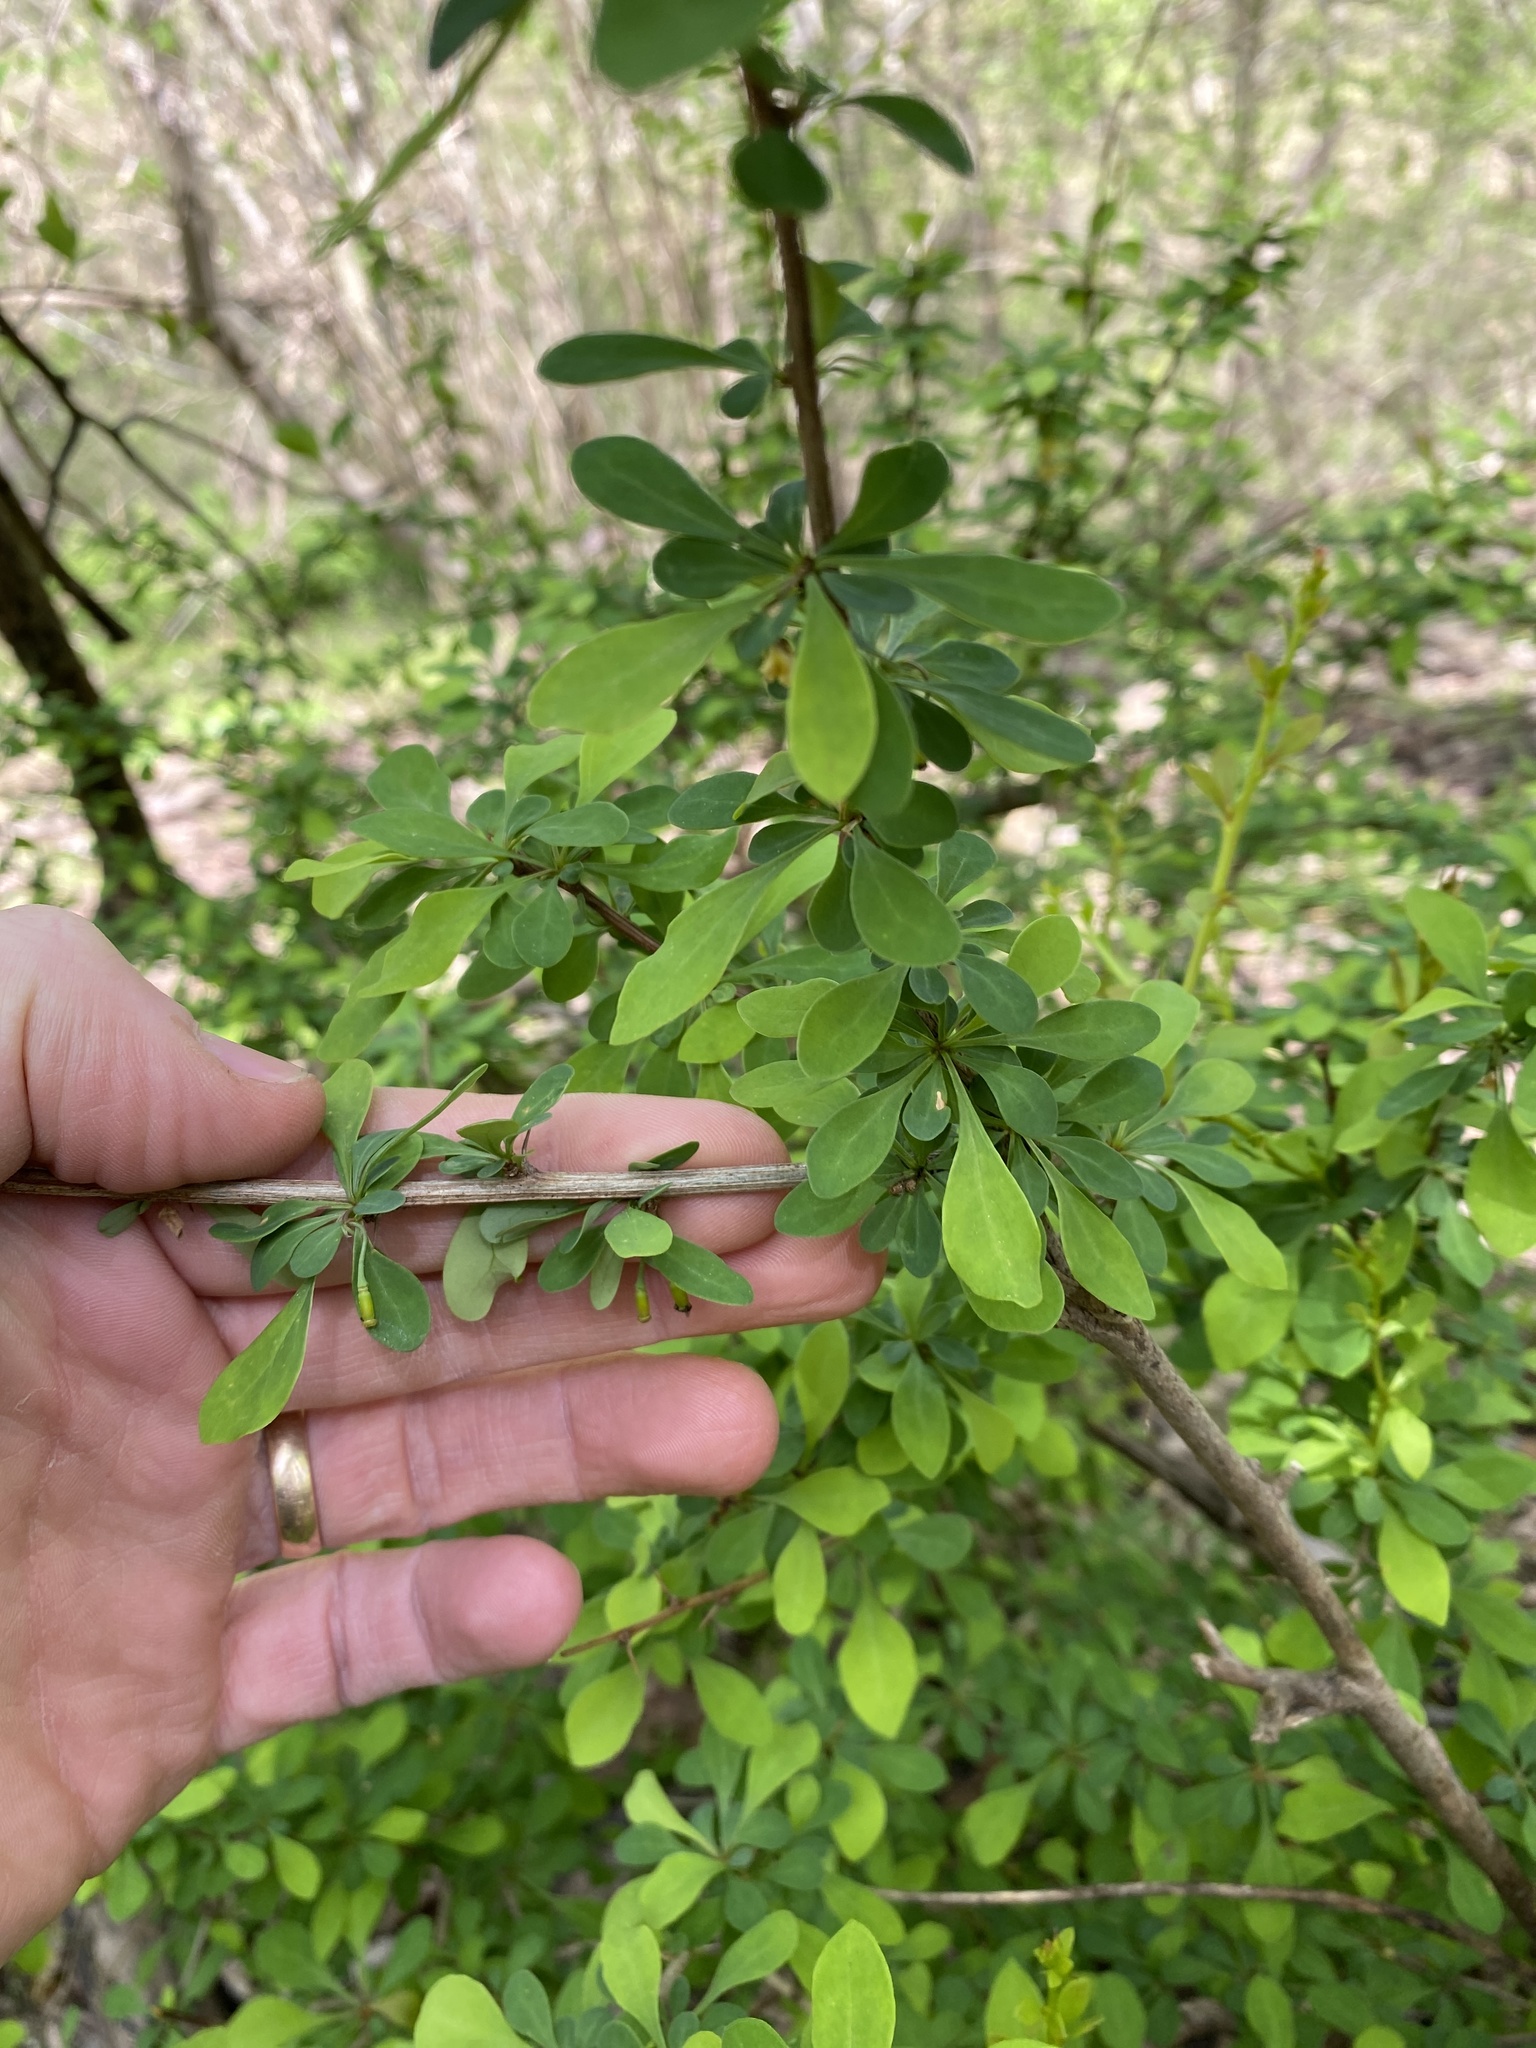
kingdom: Plantae
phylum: Tracheophyta
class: Magnoliopsida
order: Ranunculales
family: Berberidaceae
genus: Berberis
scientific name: Berberis thunbergii
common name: Japanese barberry
